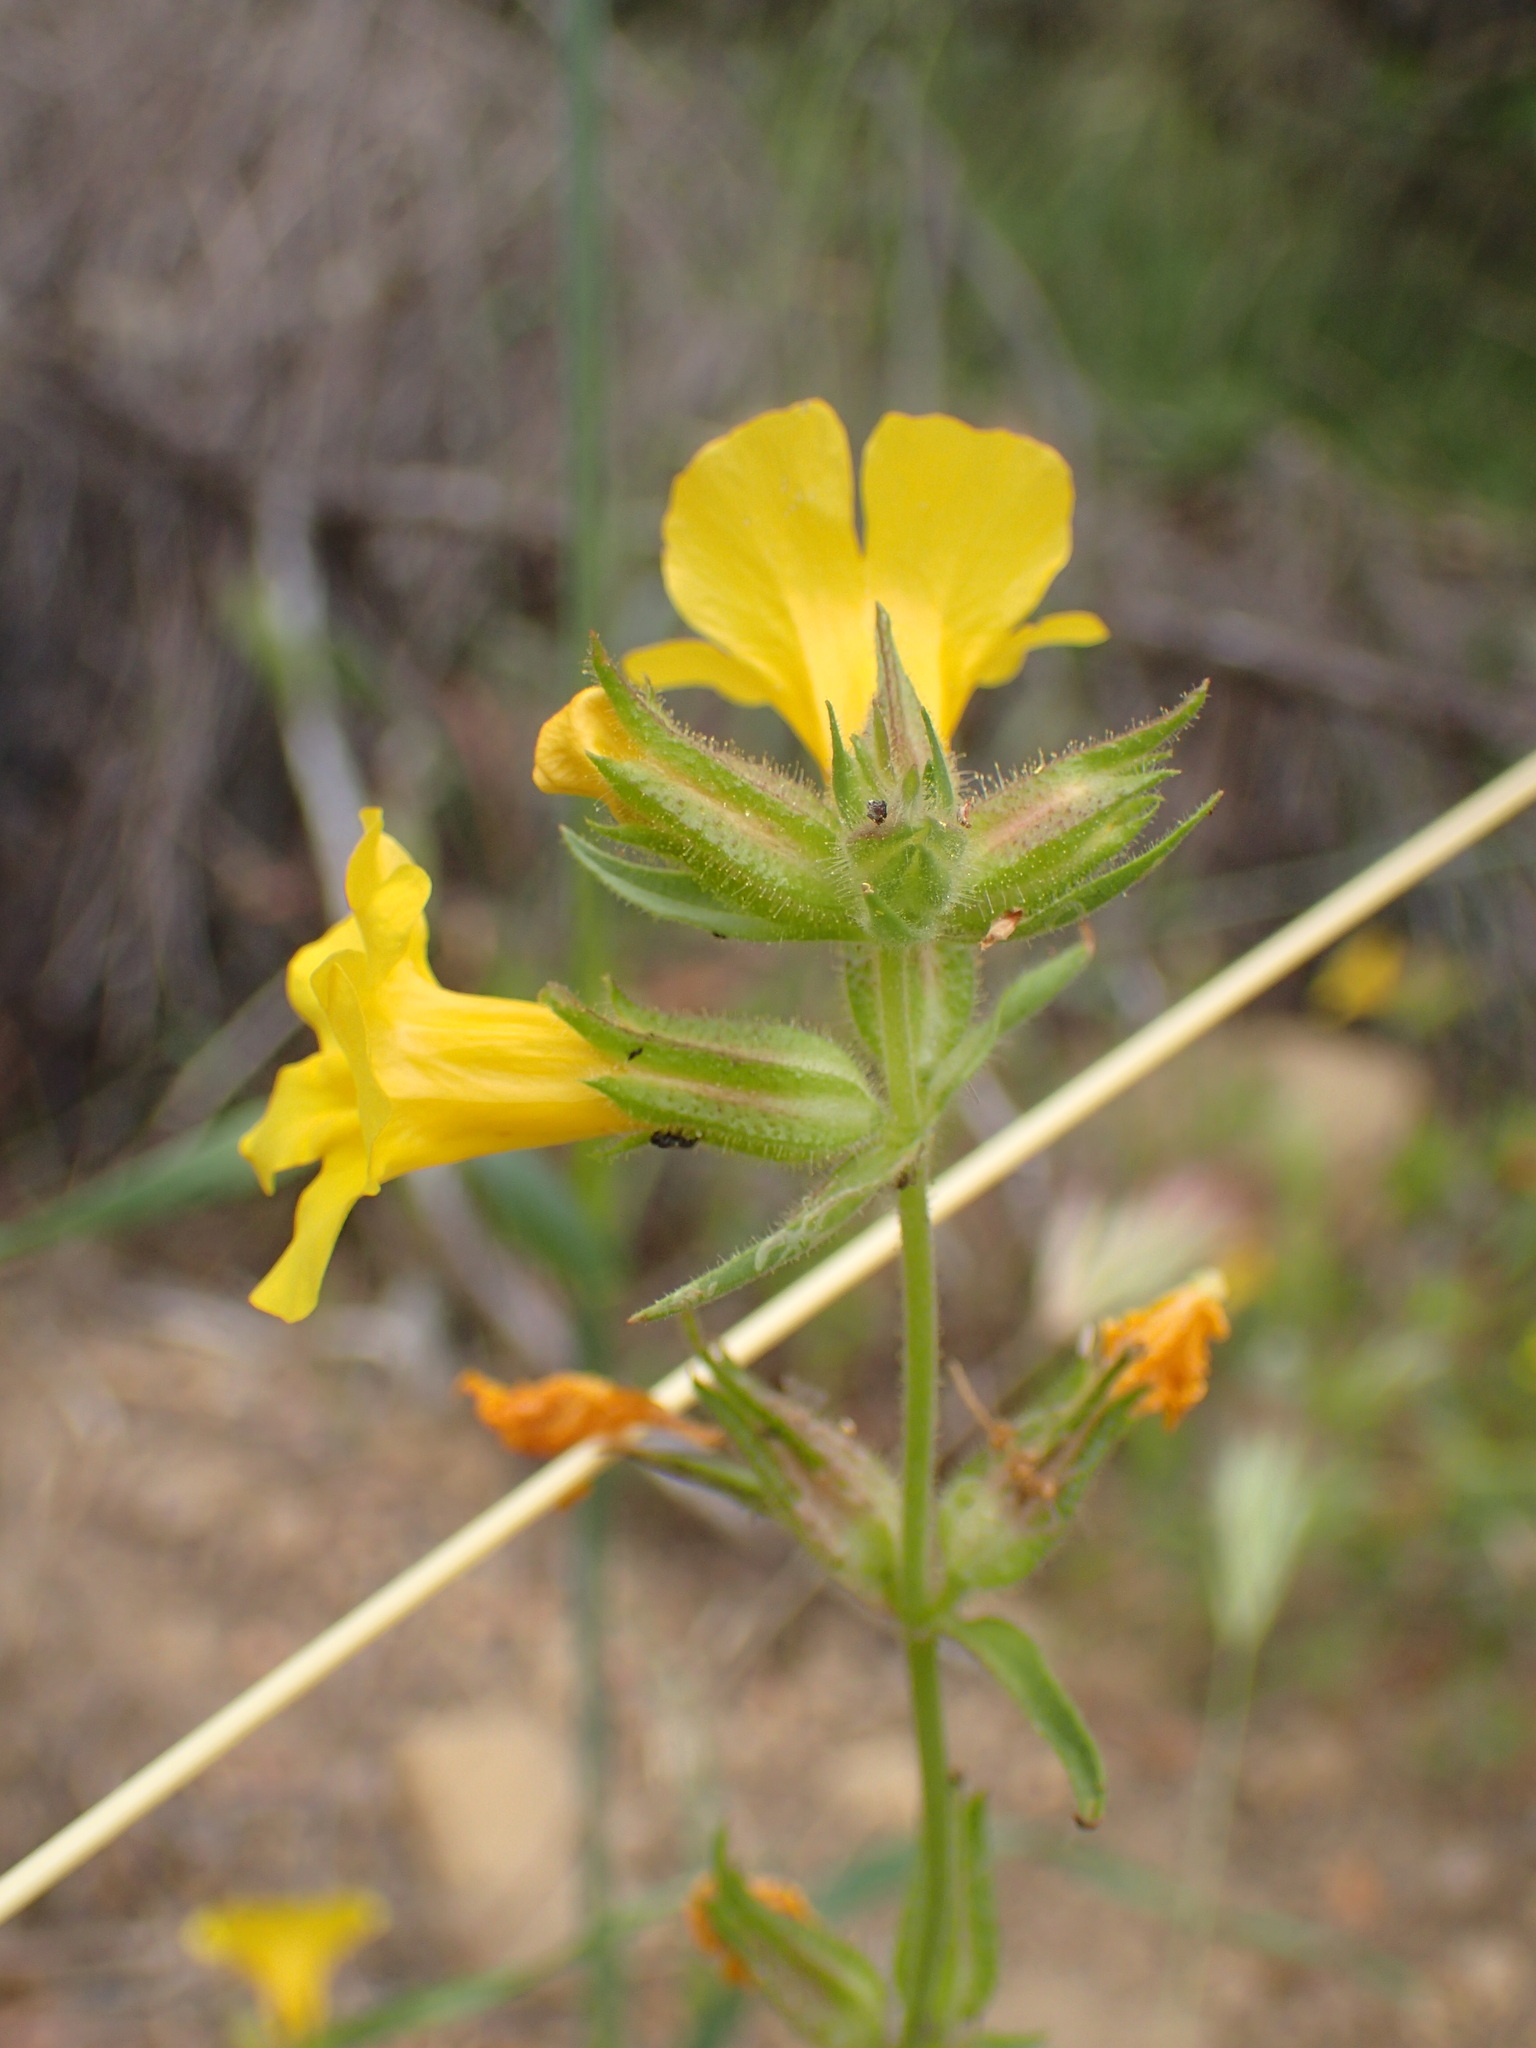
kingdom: Plantae
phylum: Tracheophyta
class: Magnoliopsida
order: Lamiales
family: Phrymaceae
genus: Diplacus
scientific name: Diplacus brevipes
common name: Wide-throat yellow monkey-flower
